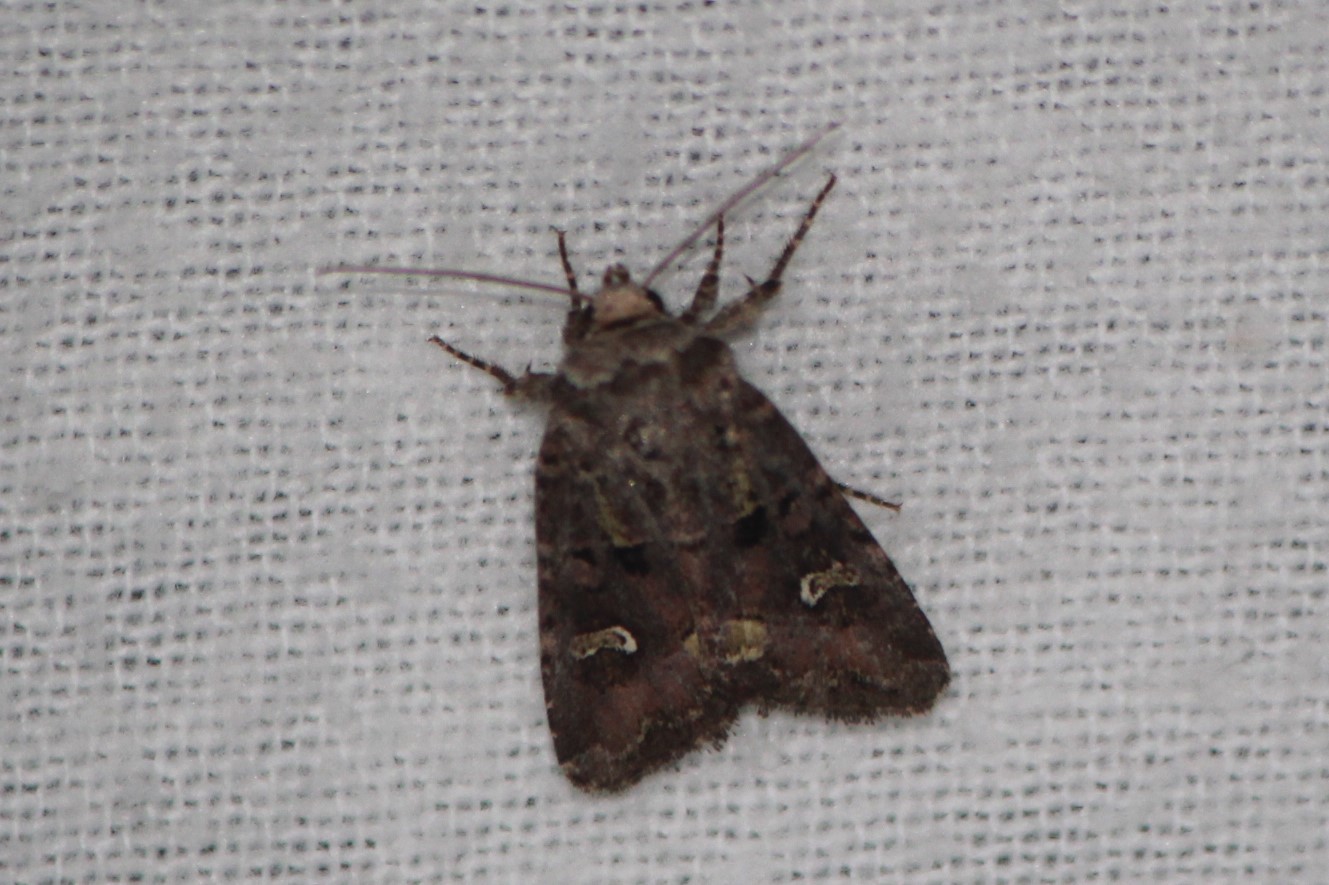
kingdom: Animalia
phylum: Arthropoda
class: Insecta
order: Lepidoptera
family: Noctuidae
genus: Lacinipolia
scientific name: Lacinipolia renigera
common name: Kidney-spotted minor
